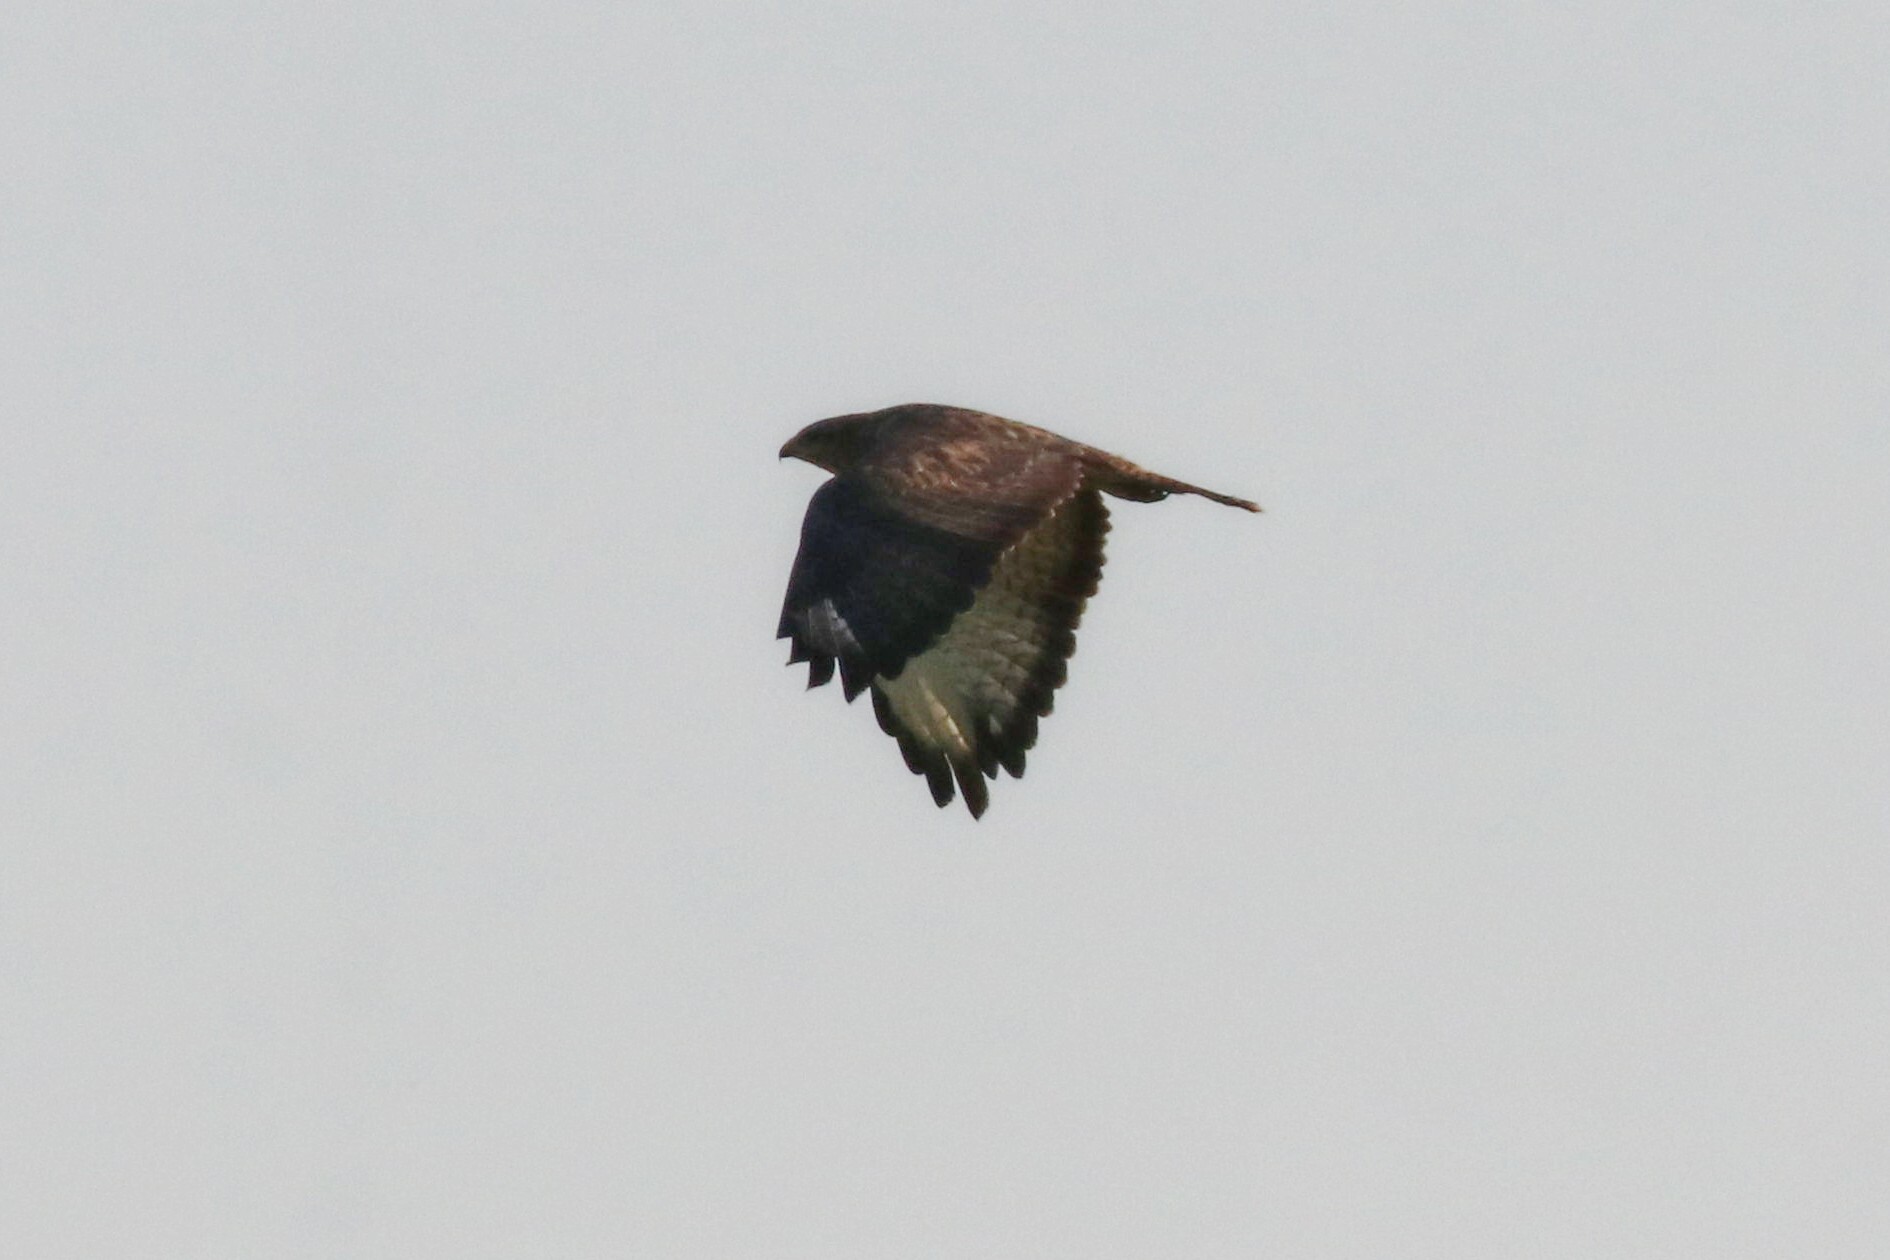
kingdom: Animalia
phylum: Chordata
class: Aves
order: Accipitriformes
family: Accipitridae
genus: Buteo
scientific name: Buteo buteo
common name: Common buzzard
